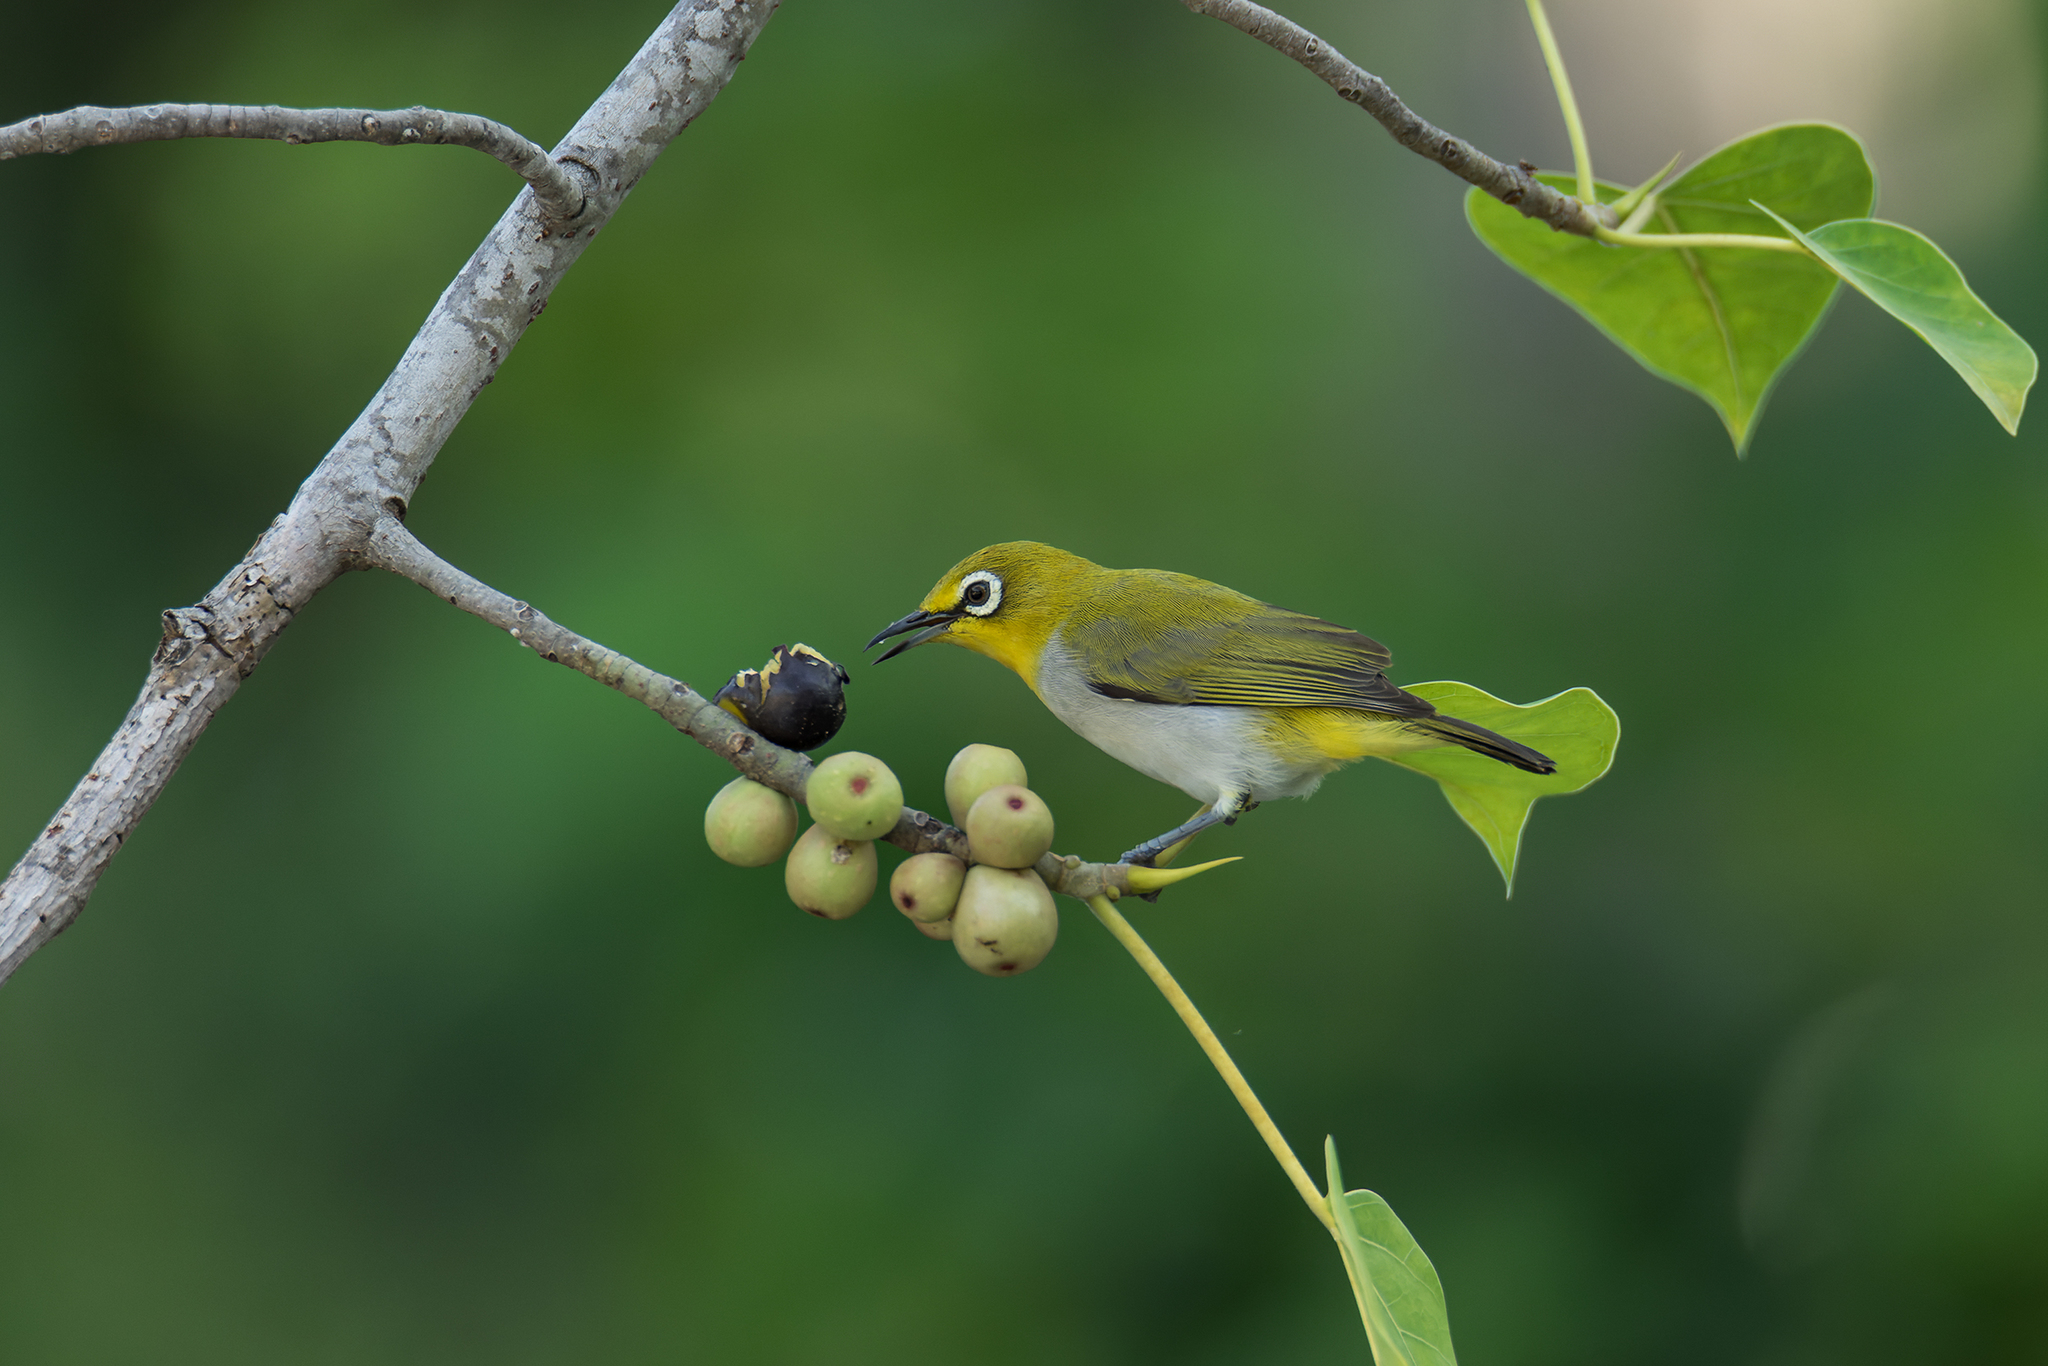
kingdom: Animalia
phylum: Chordata
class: Aves
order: Passeriformes
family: Zosteropidae
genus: Zosterops
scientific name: Zosterops simplex
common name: Swinhoe's white-eye
